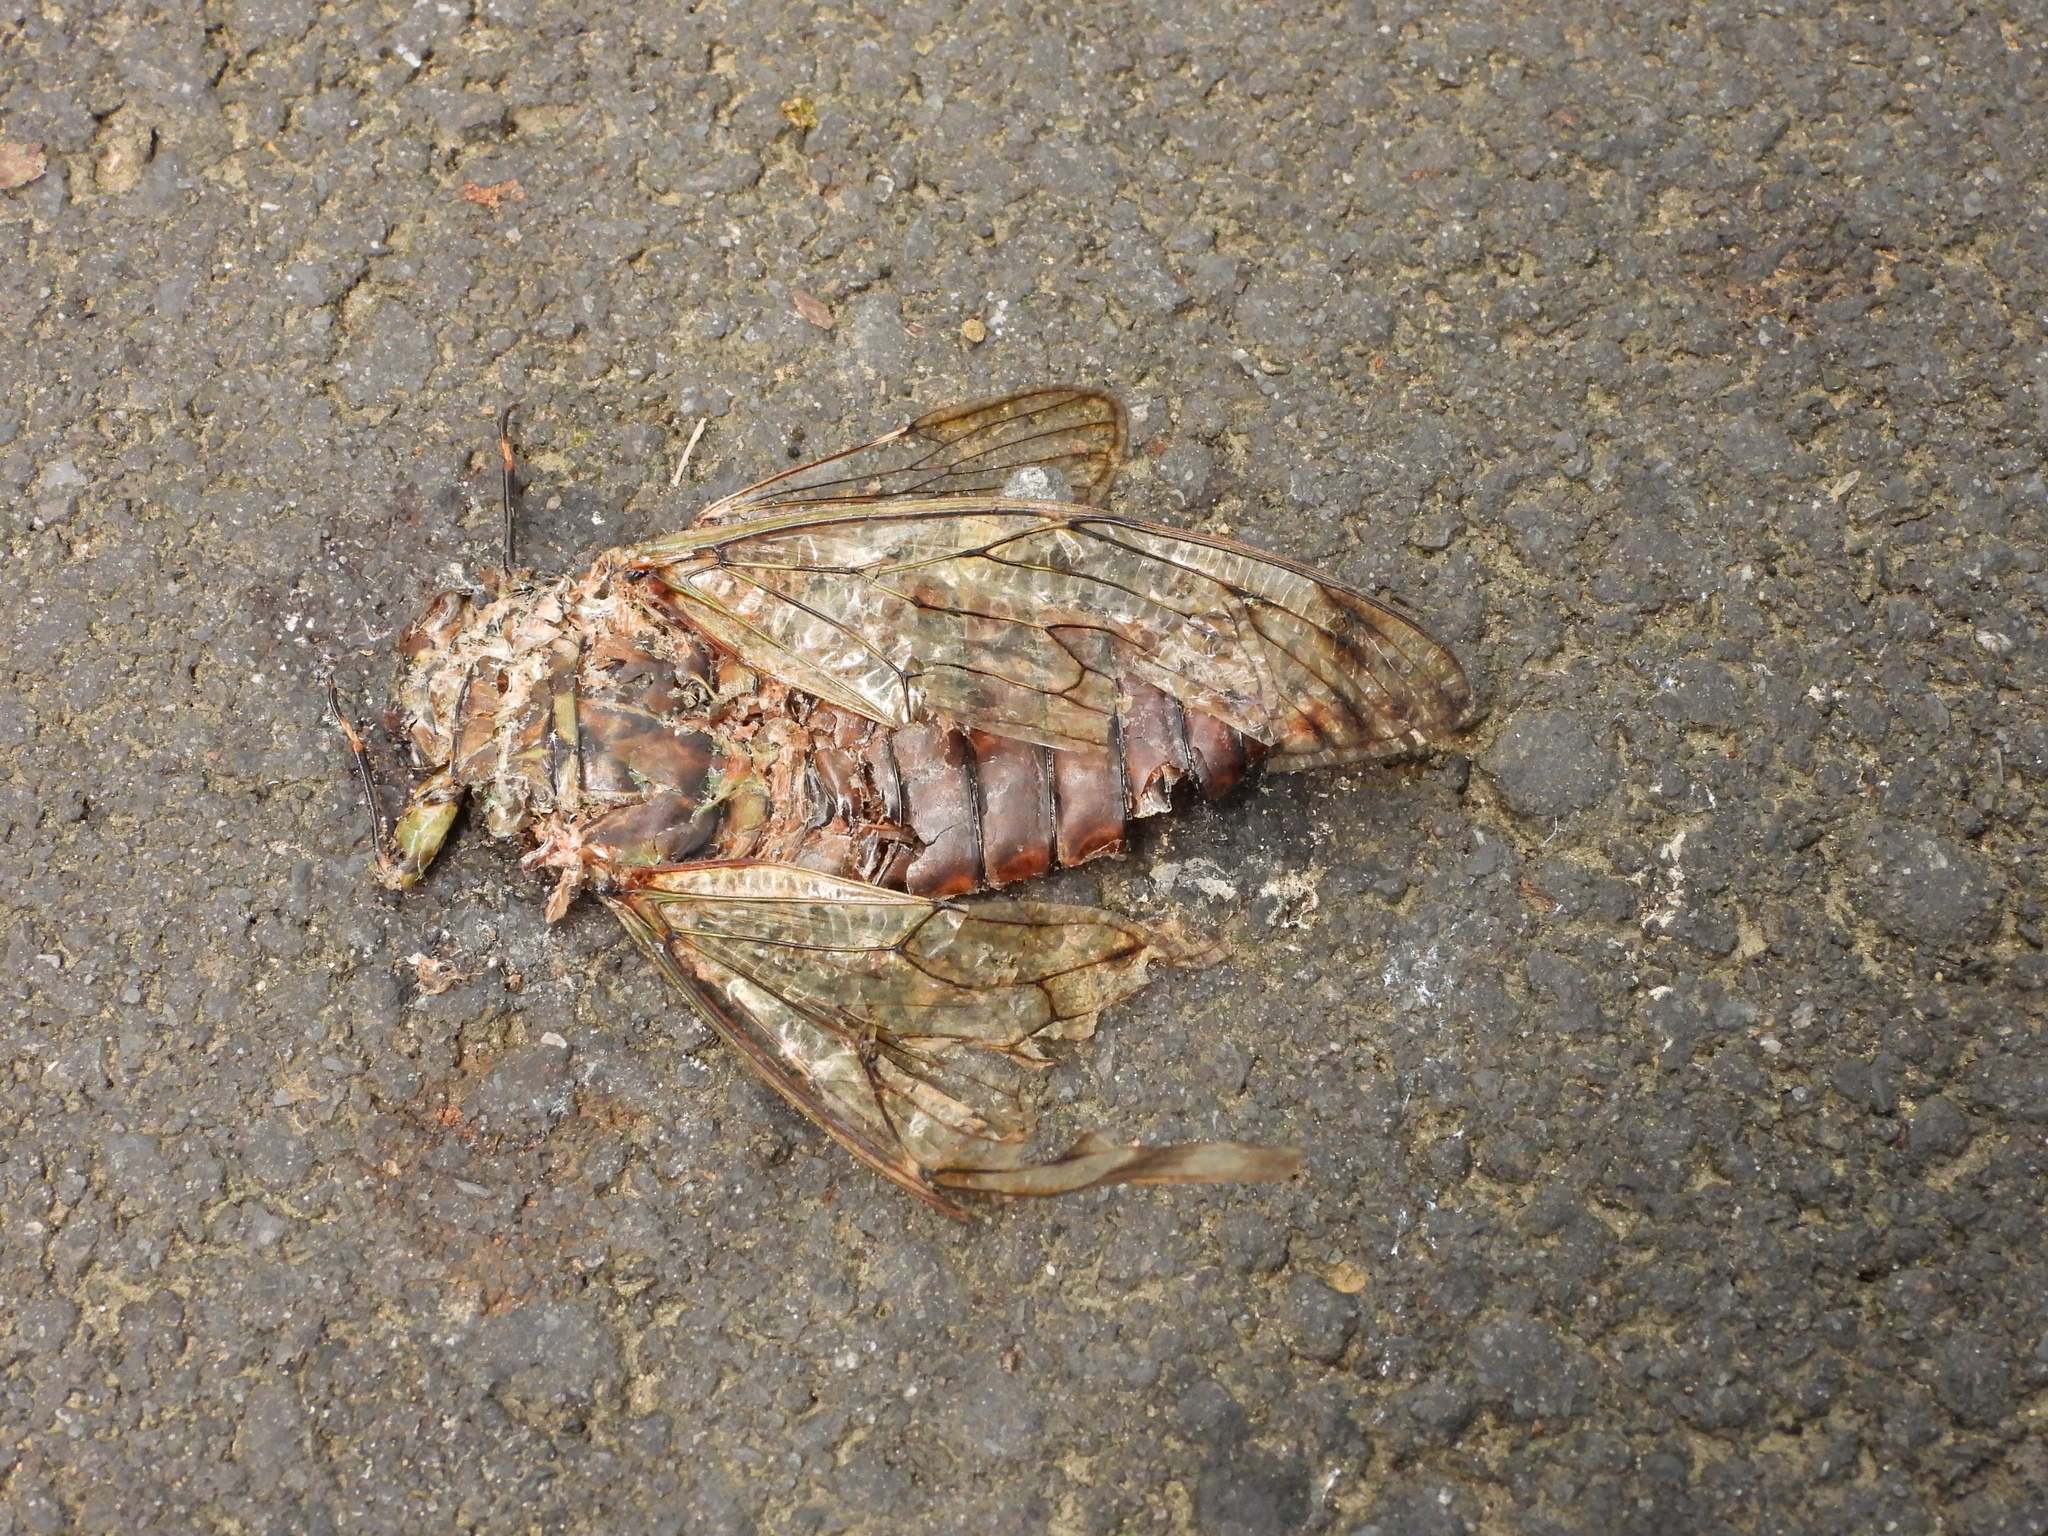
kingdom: Animalia
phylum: Arthropoda
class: Insecta
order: Hemiptera
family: Cicadidae
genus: Pomponia
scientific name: Pomponia yayeyamana
